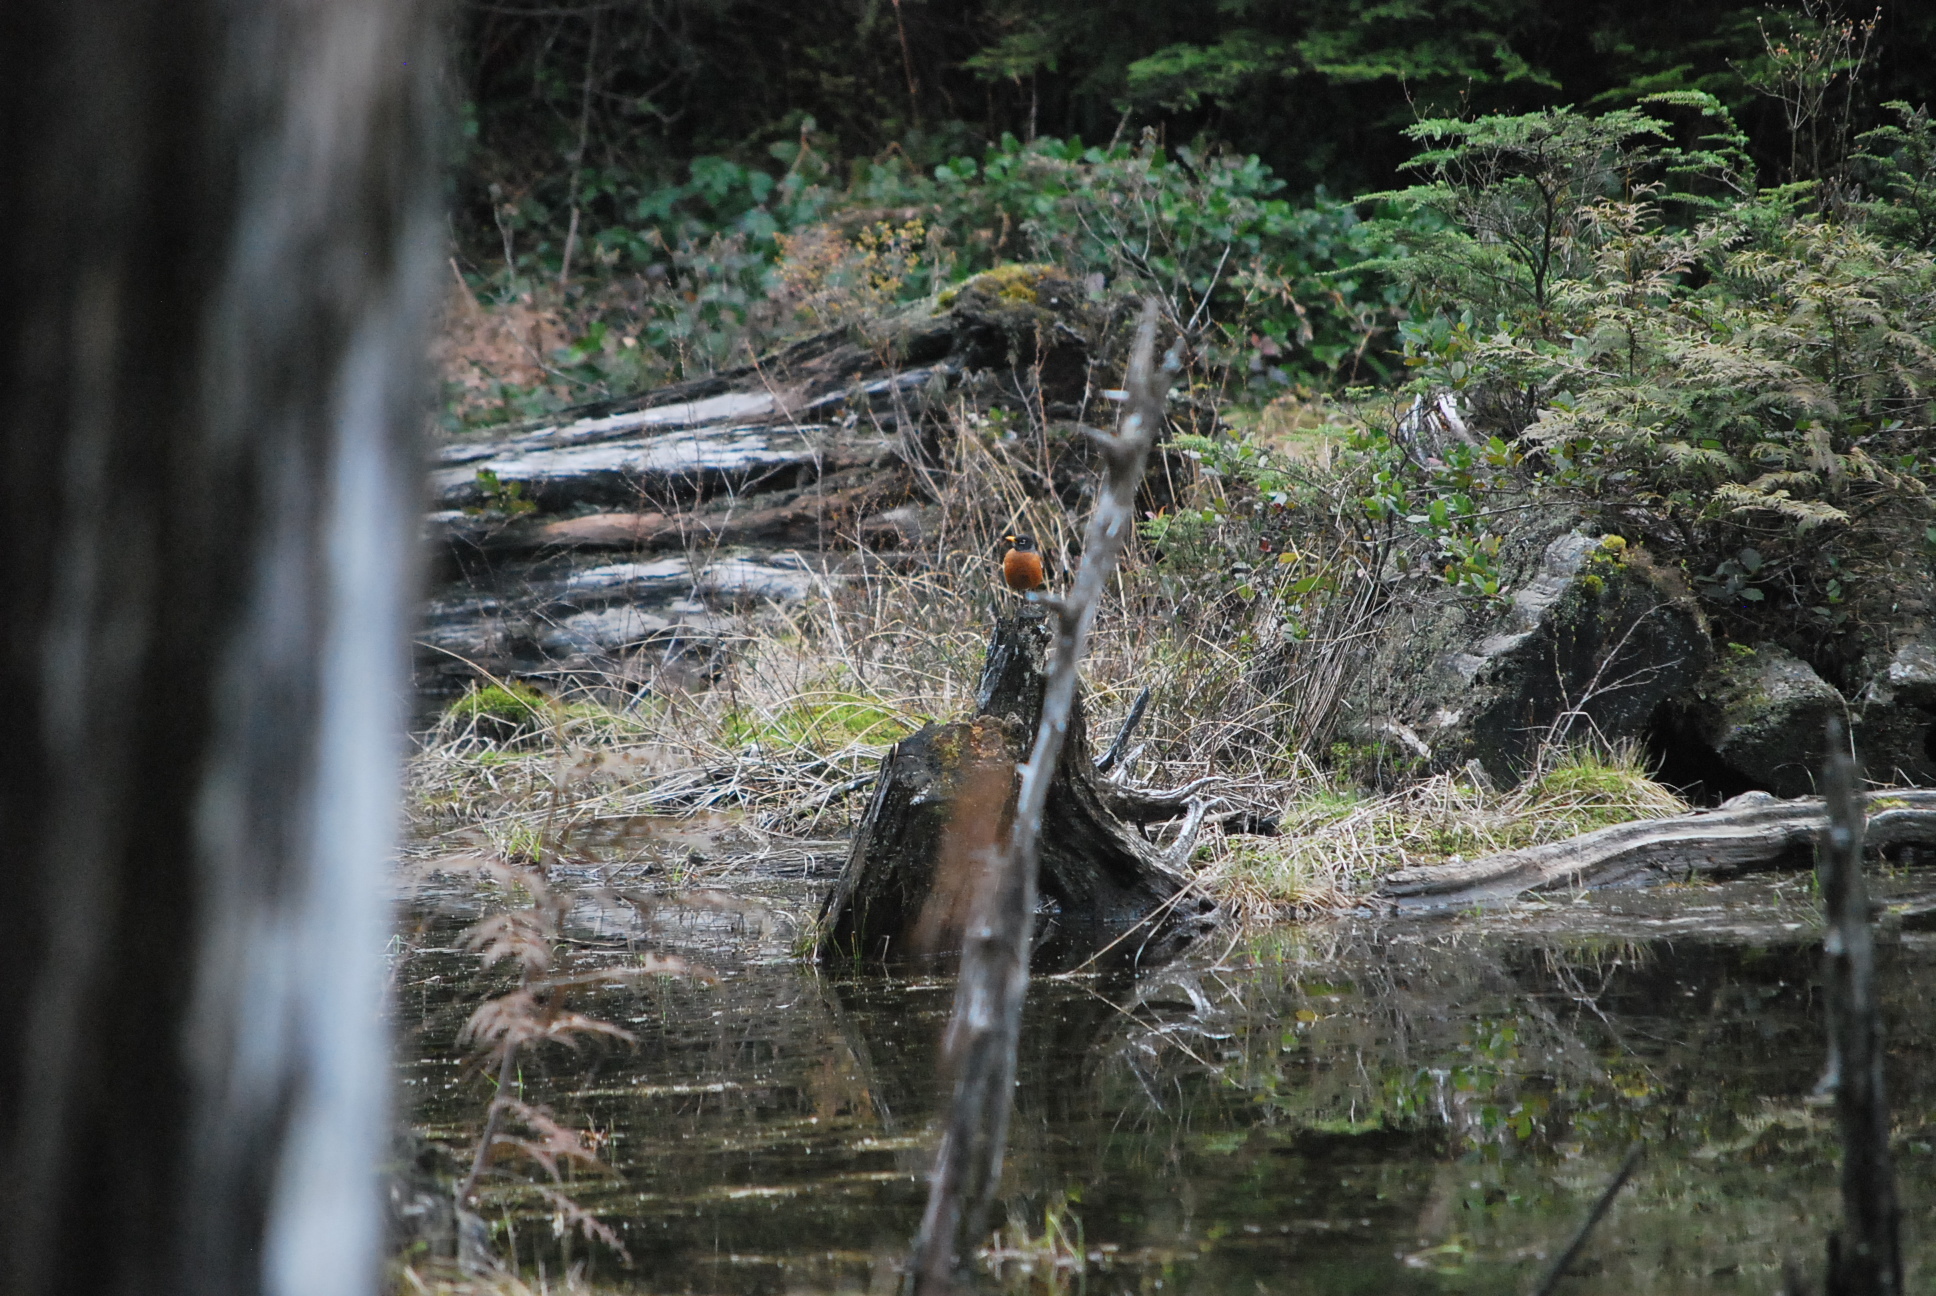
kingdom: Animalia
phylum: Chordata
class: Aves
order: Passeriformes
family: Turdidae
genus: Turdus
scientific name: Turdus migratorius
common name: American robin
